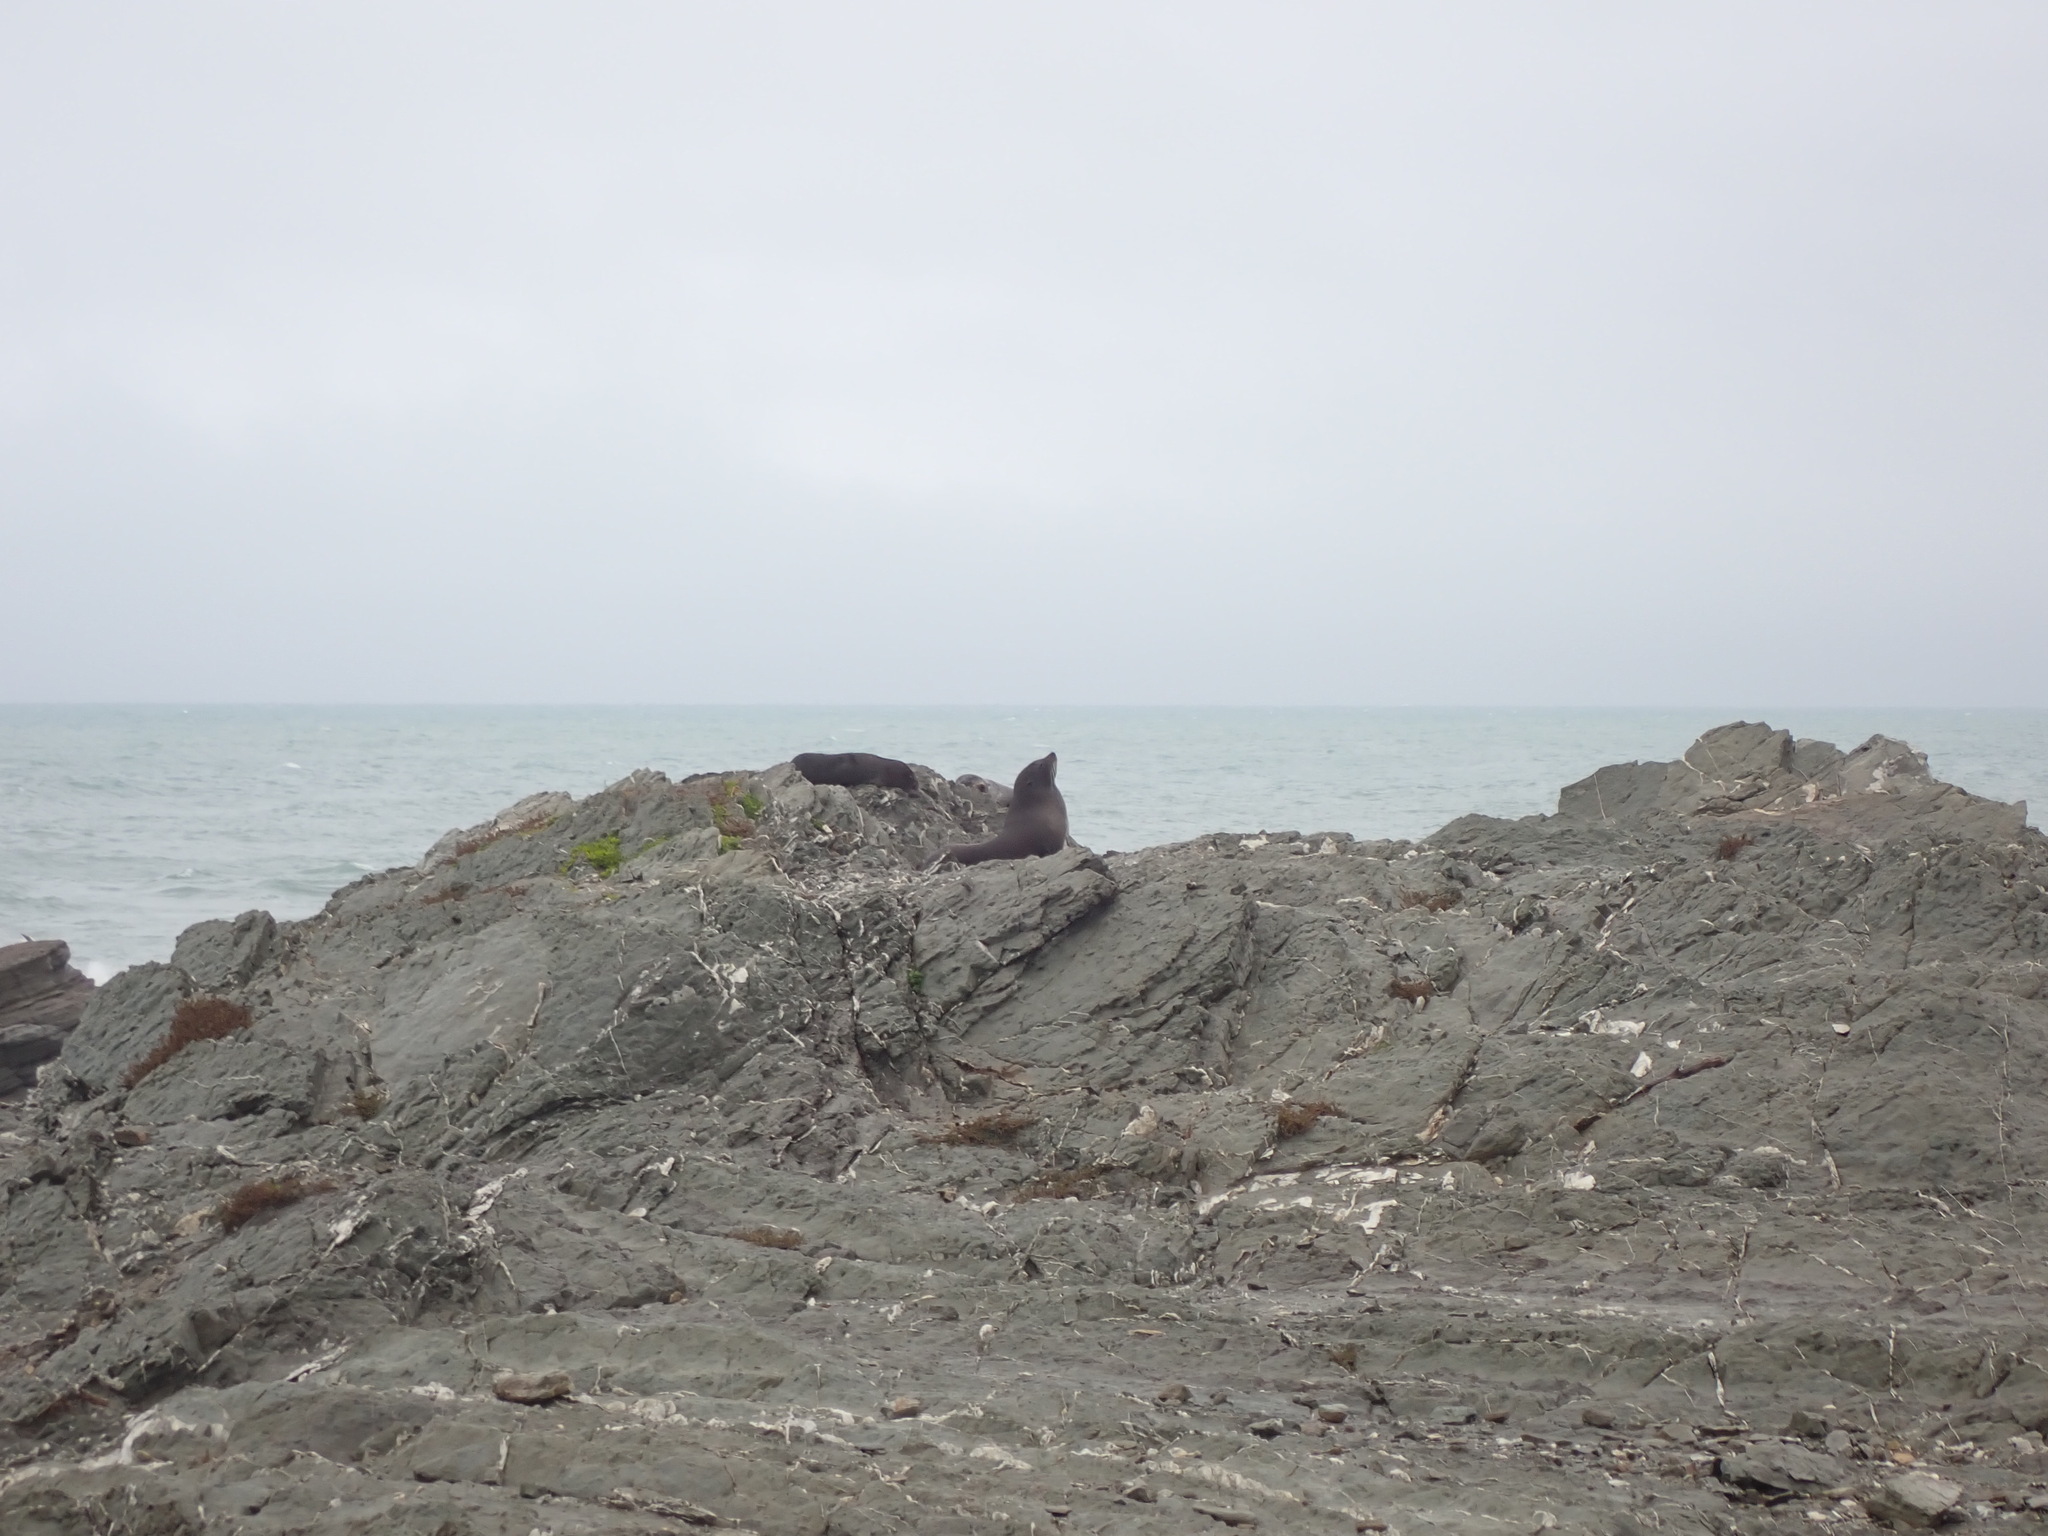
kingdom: Animalia
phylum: Chordata
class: Mammalia
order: Carnivora
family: Otariidae
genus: Arctocephalus
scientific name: Arctocephalus forsteri
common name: New zealand fur seal
